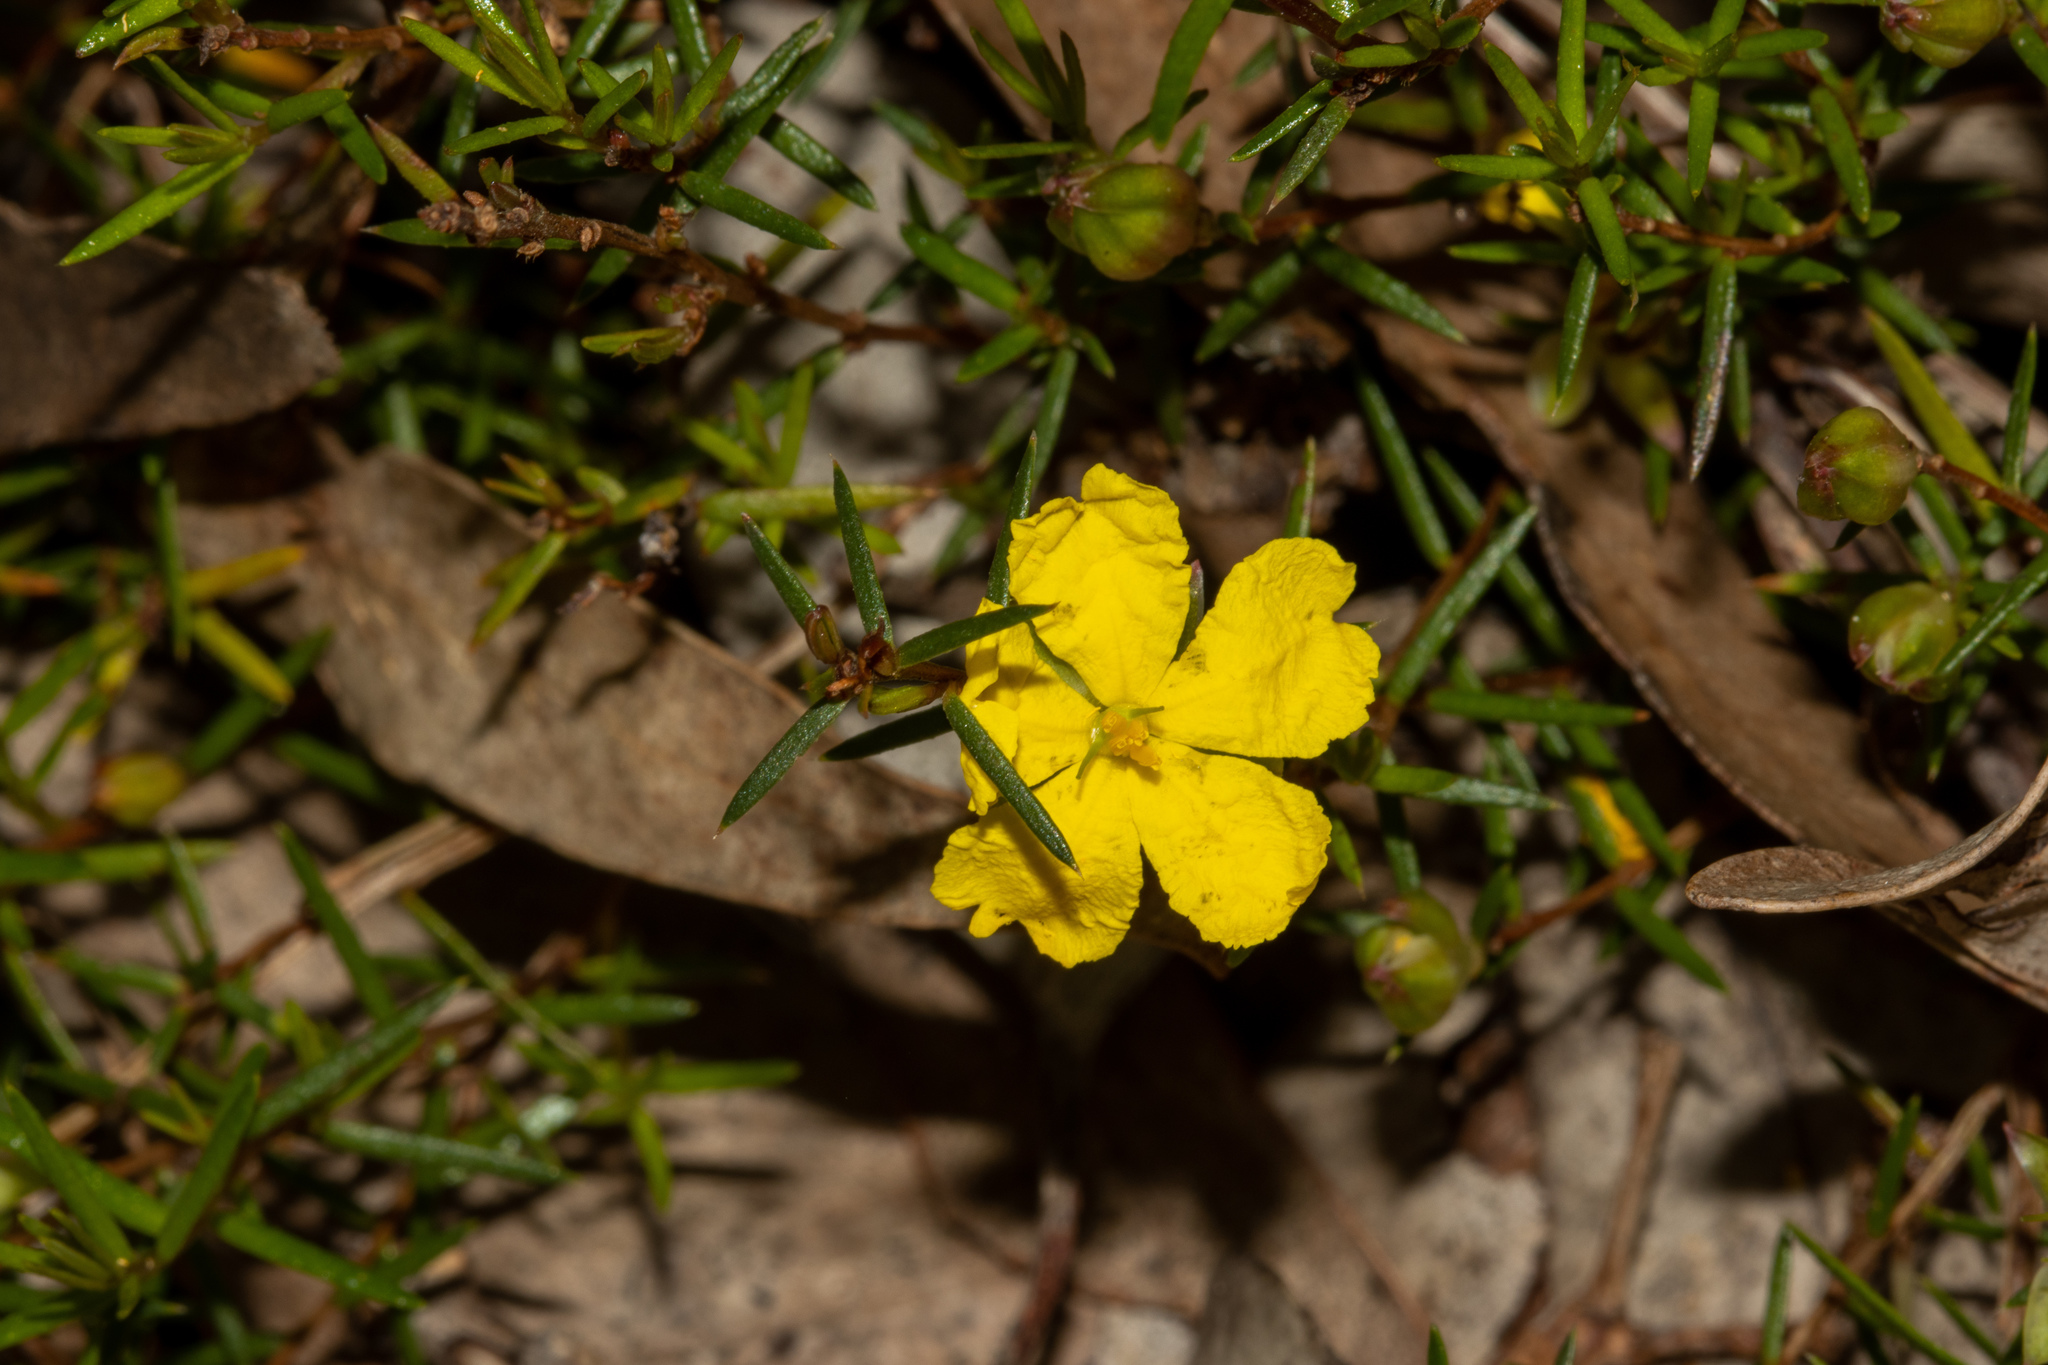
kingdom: Plantae
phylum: Tracheophyta
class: Magnoliopsida
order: Dilleniales
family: Dilleniaceae
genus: Hibbertia
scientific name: Hibbertia exutiacies
